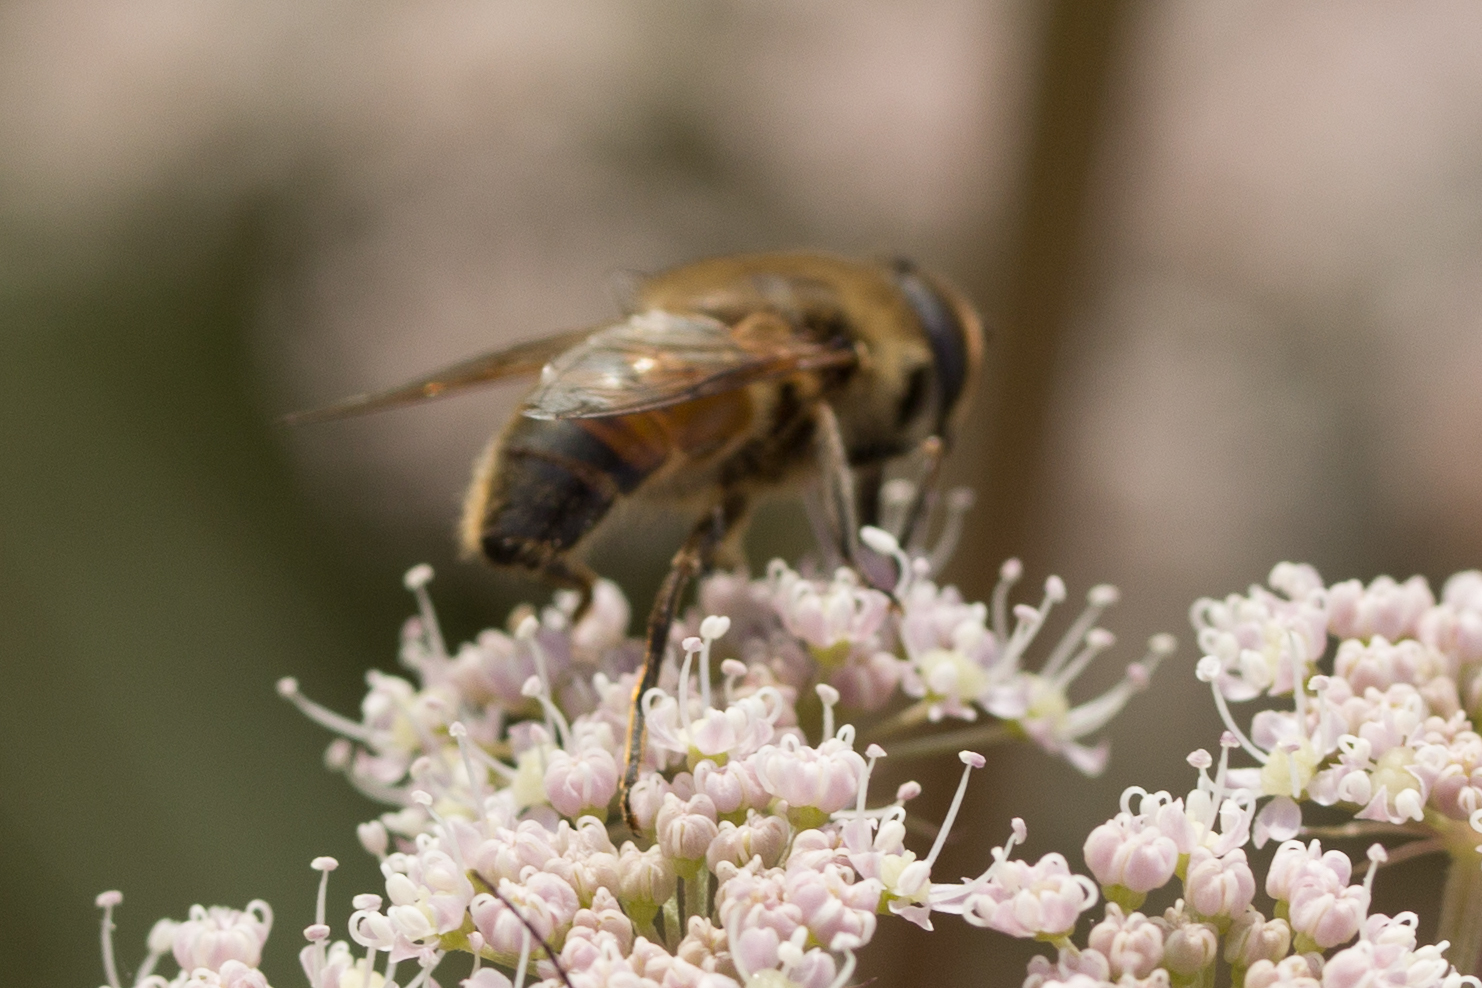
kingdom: Animalia
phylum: Arthropoda
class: Insecta
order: Diptera
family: Syrphidae
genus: Eristalis
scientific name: Eristalis tenax
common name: Drone fly
